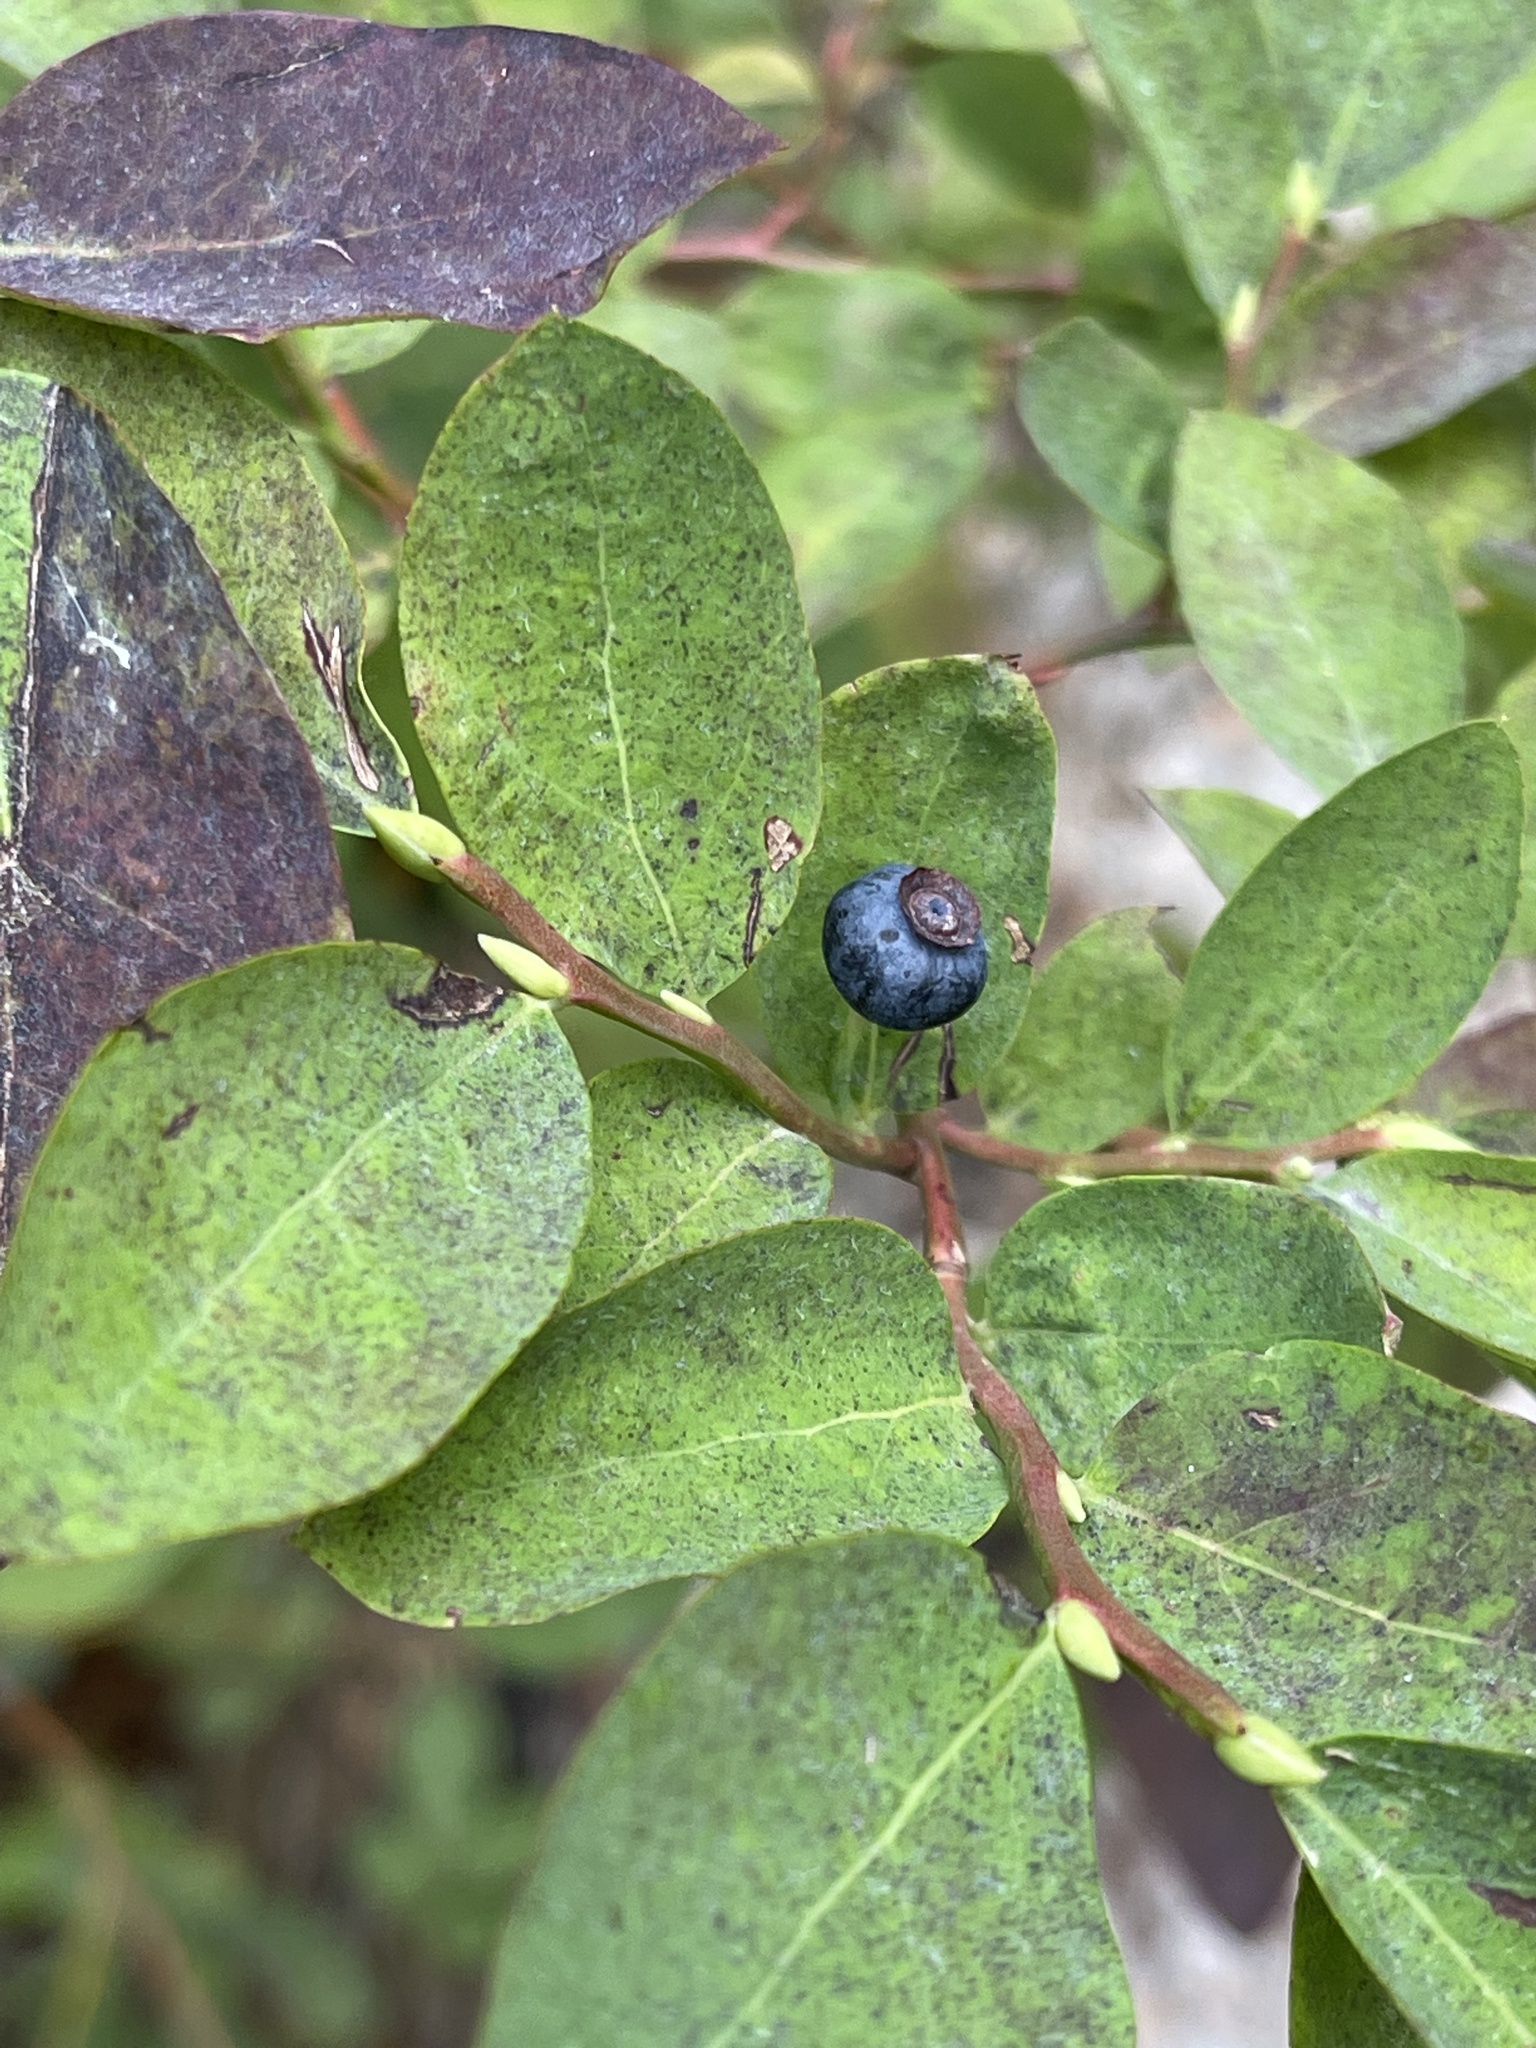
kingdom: Plantae
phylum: Tracheophyta
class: Magnoliopsida
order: Ericales
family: Ericaceae
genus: Vaccinium
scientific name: Vaccinium ovalifolium
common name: Early blueberry
